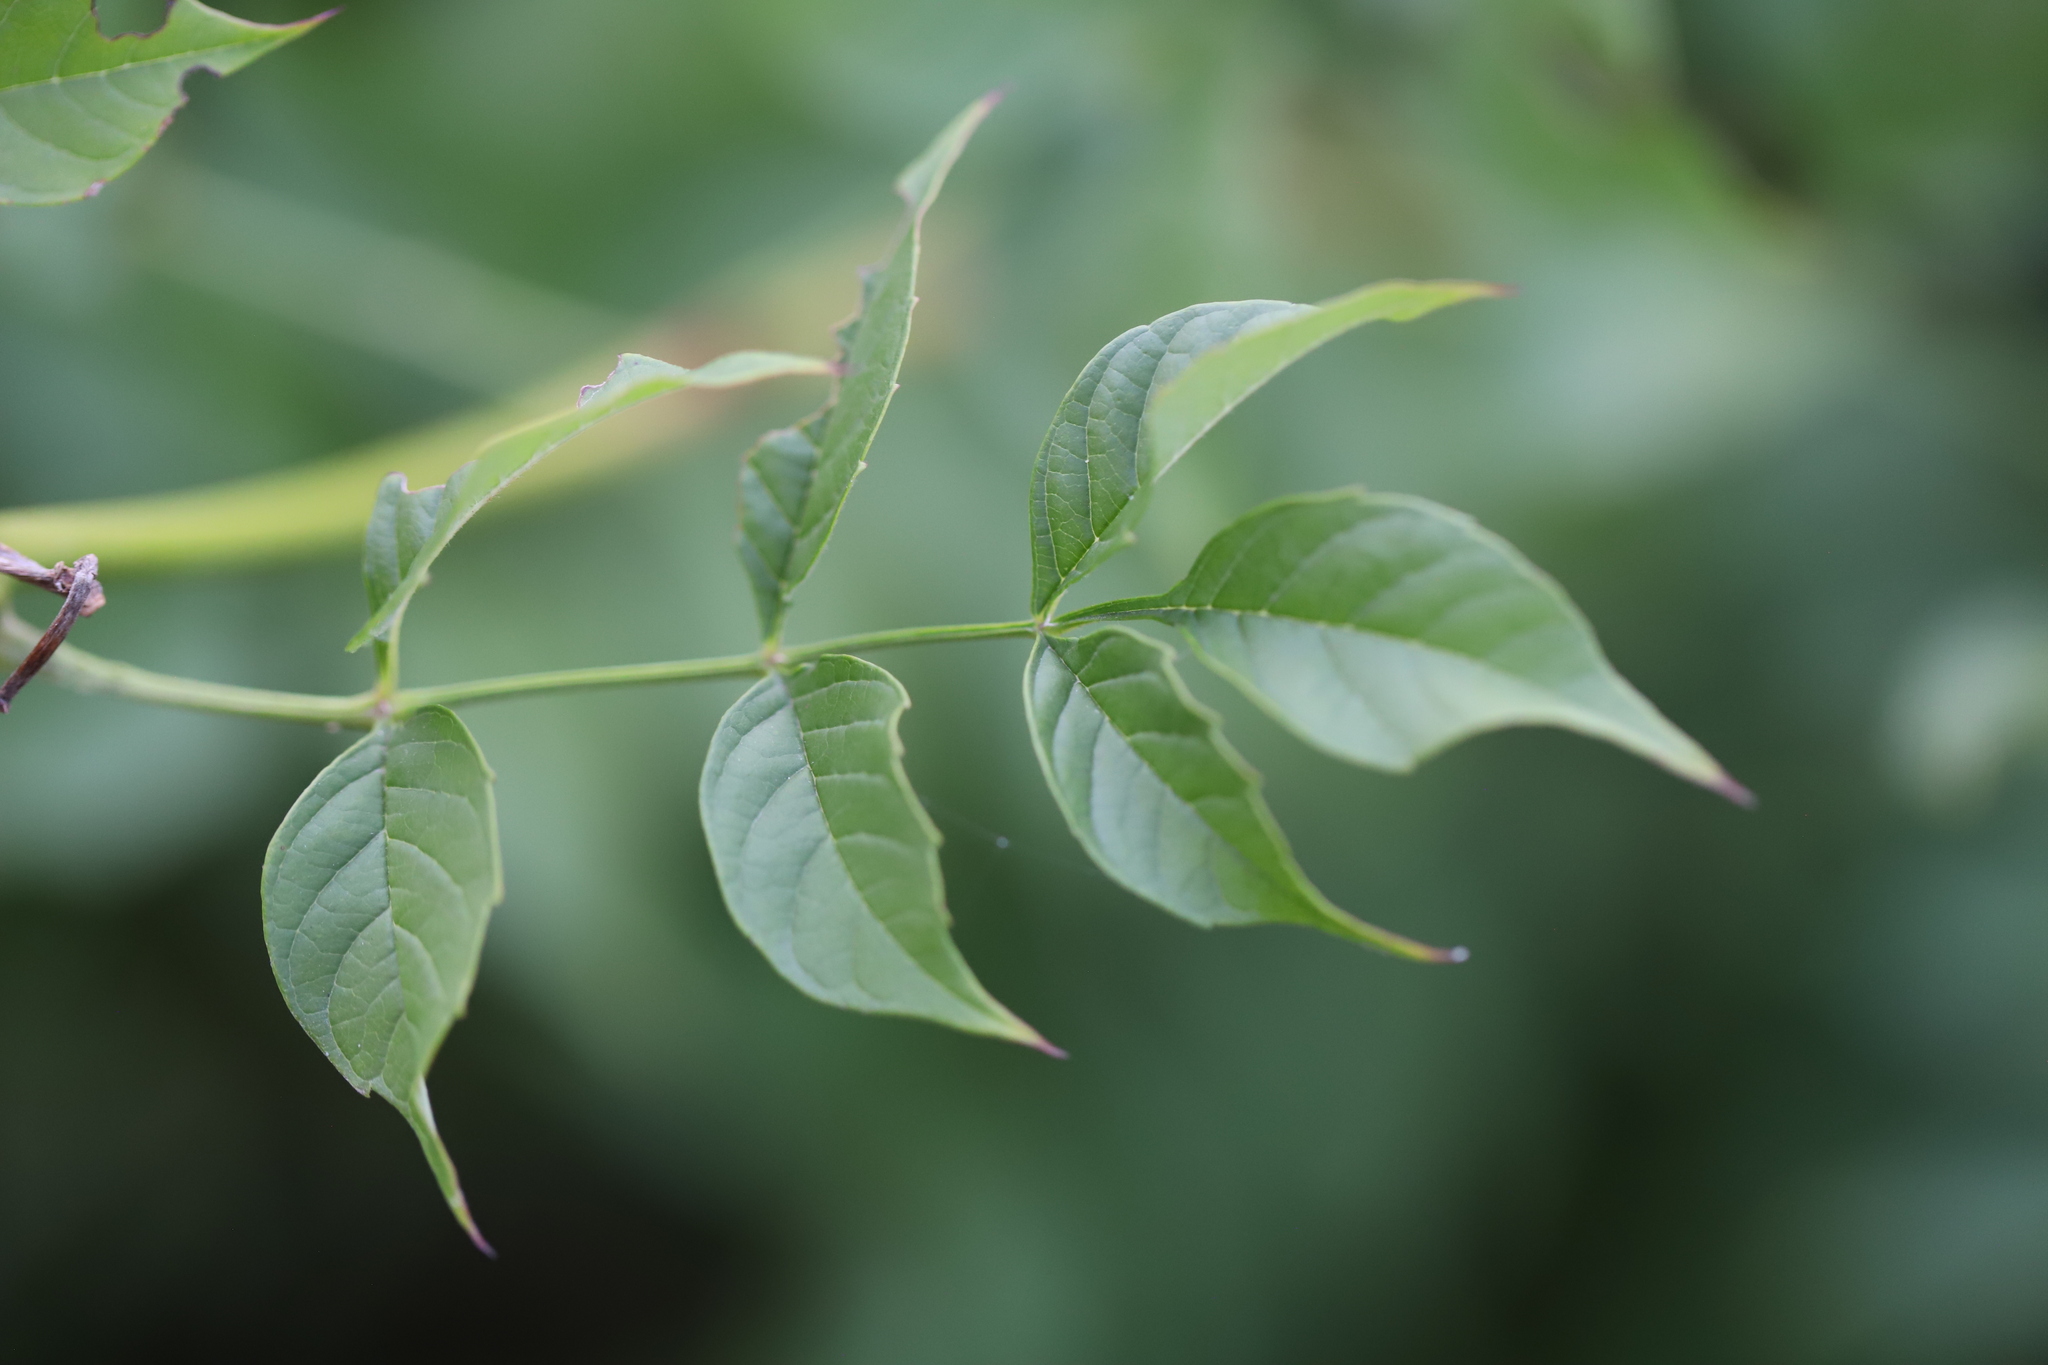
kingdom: Plantae
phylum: Tracheophyta
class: Magnoliopsida
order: Lamiales
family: Bignoniaceae
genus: Campsis
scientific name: Campsis radicans
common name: Trumpet-creeper
